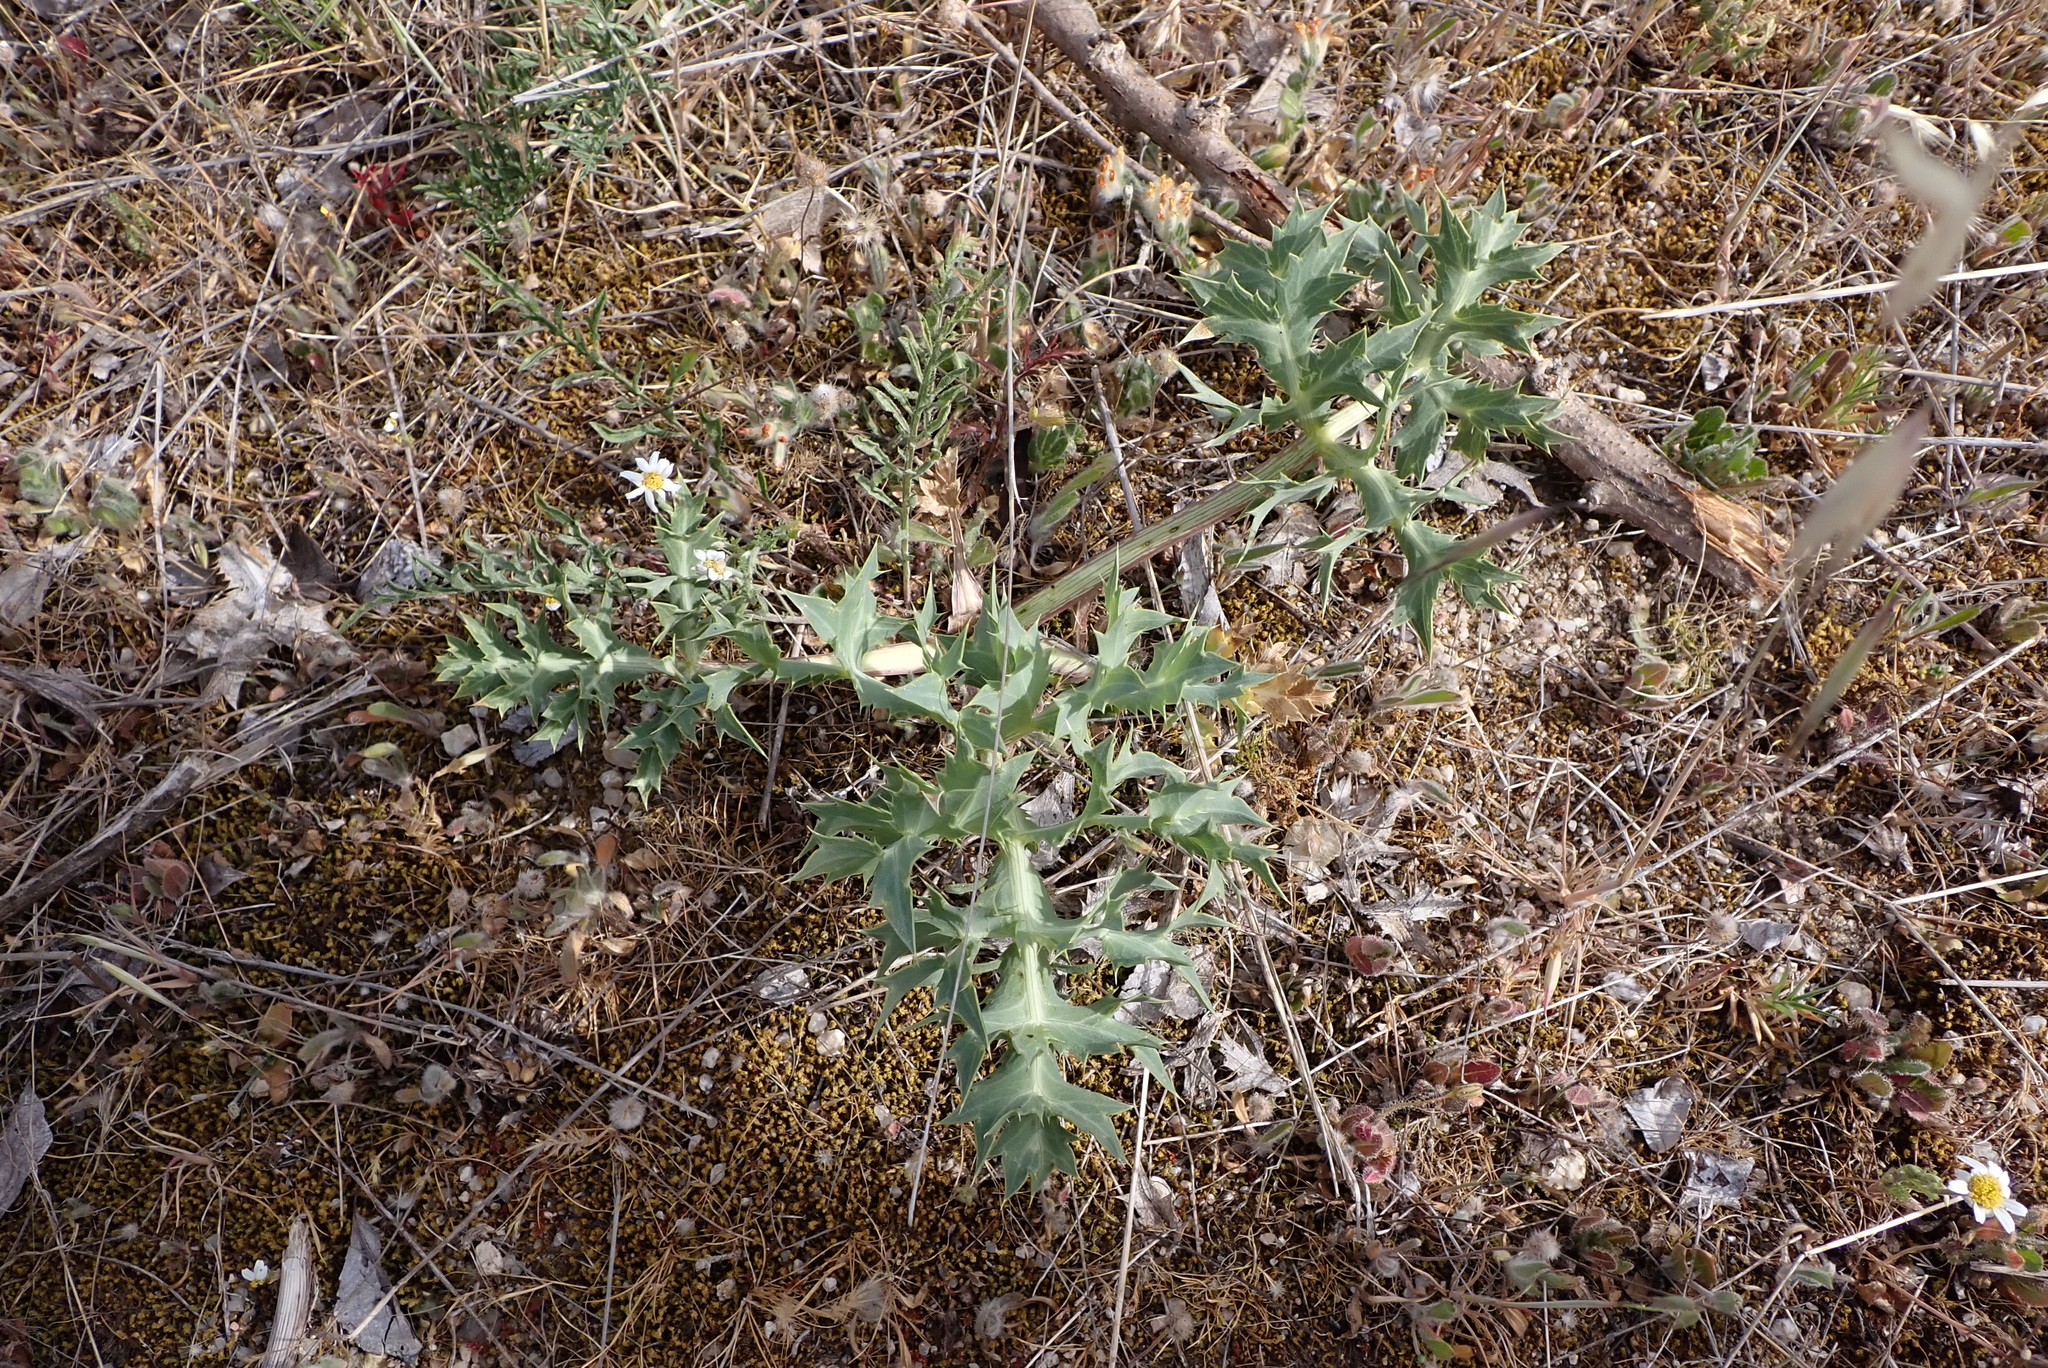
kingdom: Plantae
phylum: Tracheophyta
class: Magnoliopsida
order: Apiales
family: Apiaceae
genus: Eryngium
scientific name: Eryngium campestre
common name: Field eryngo
